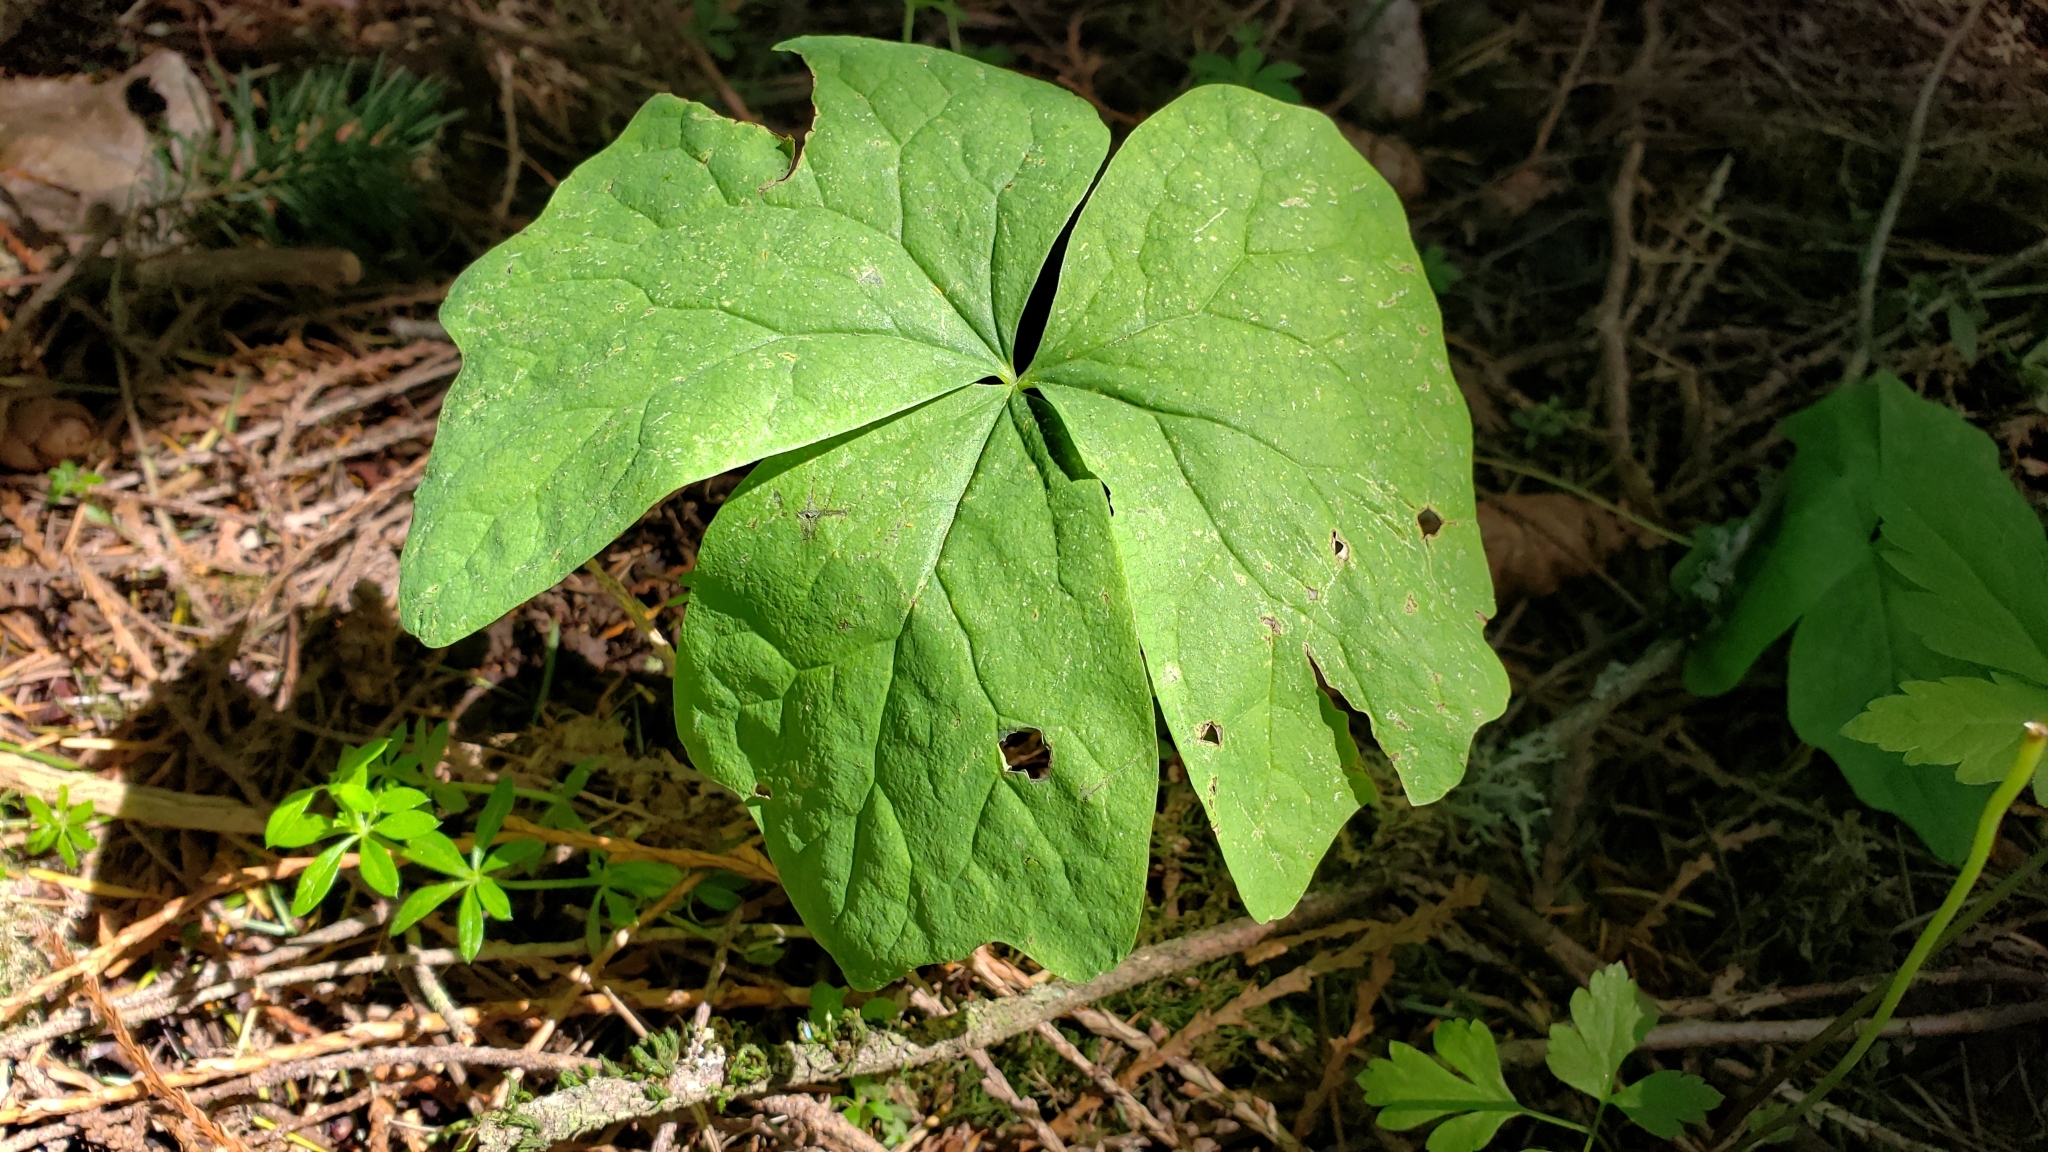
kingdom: Plantae
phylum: Tracheophyta
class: Magnoliopsida
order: Ranunculales
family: Berberidaceae
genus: Achlys
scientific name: Achlys triphylla
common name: Vanilla-leaf
